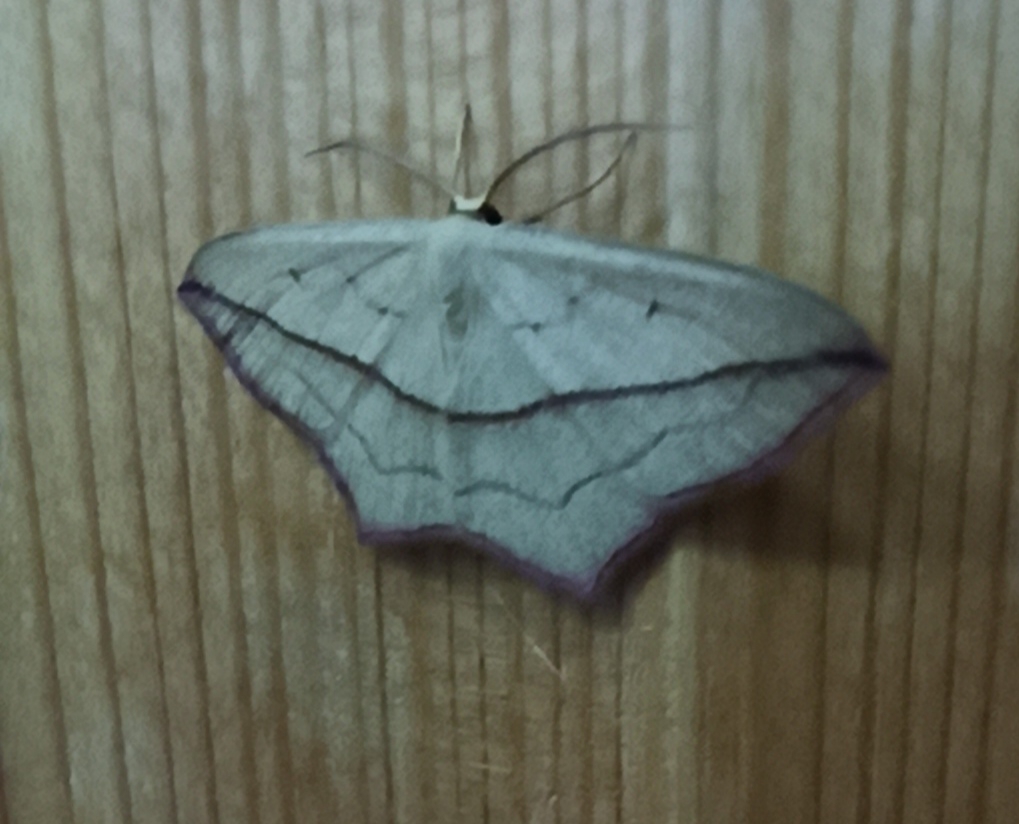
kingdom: Animalia
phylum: Arthropoda
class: Insecta
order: Lepidoptera
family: Geometridae
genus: Timandra
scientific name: Timandra comae
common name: Blood-vein
